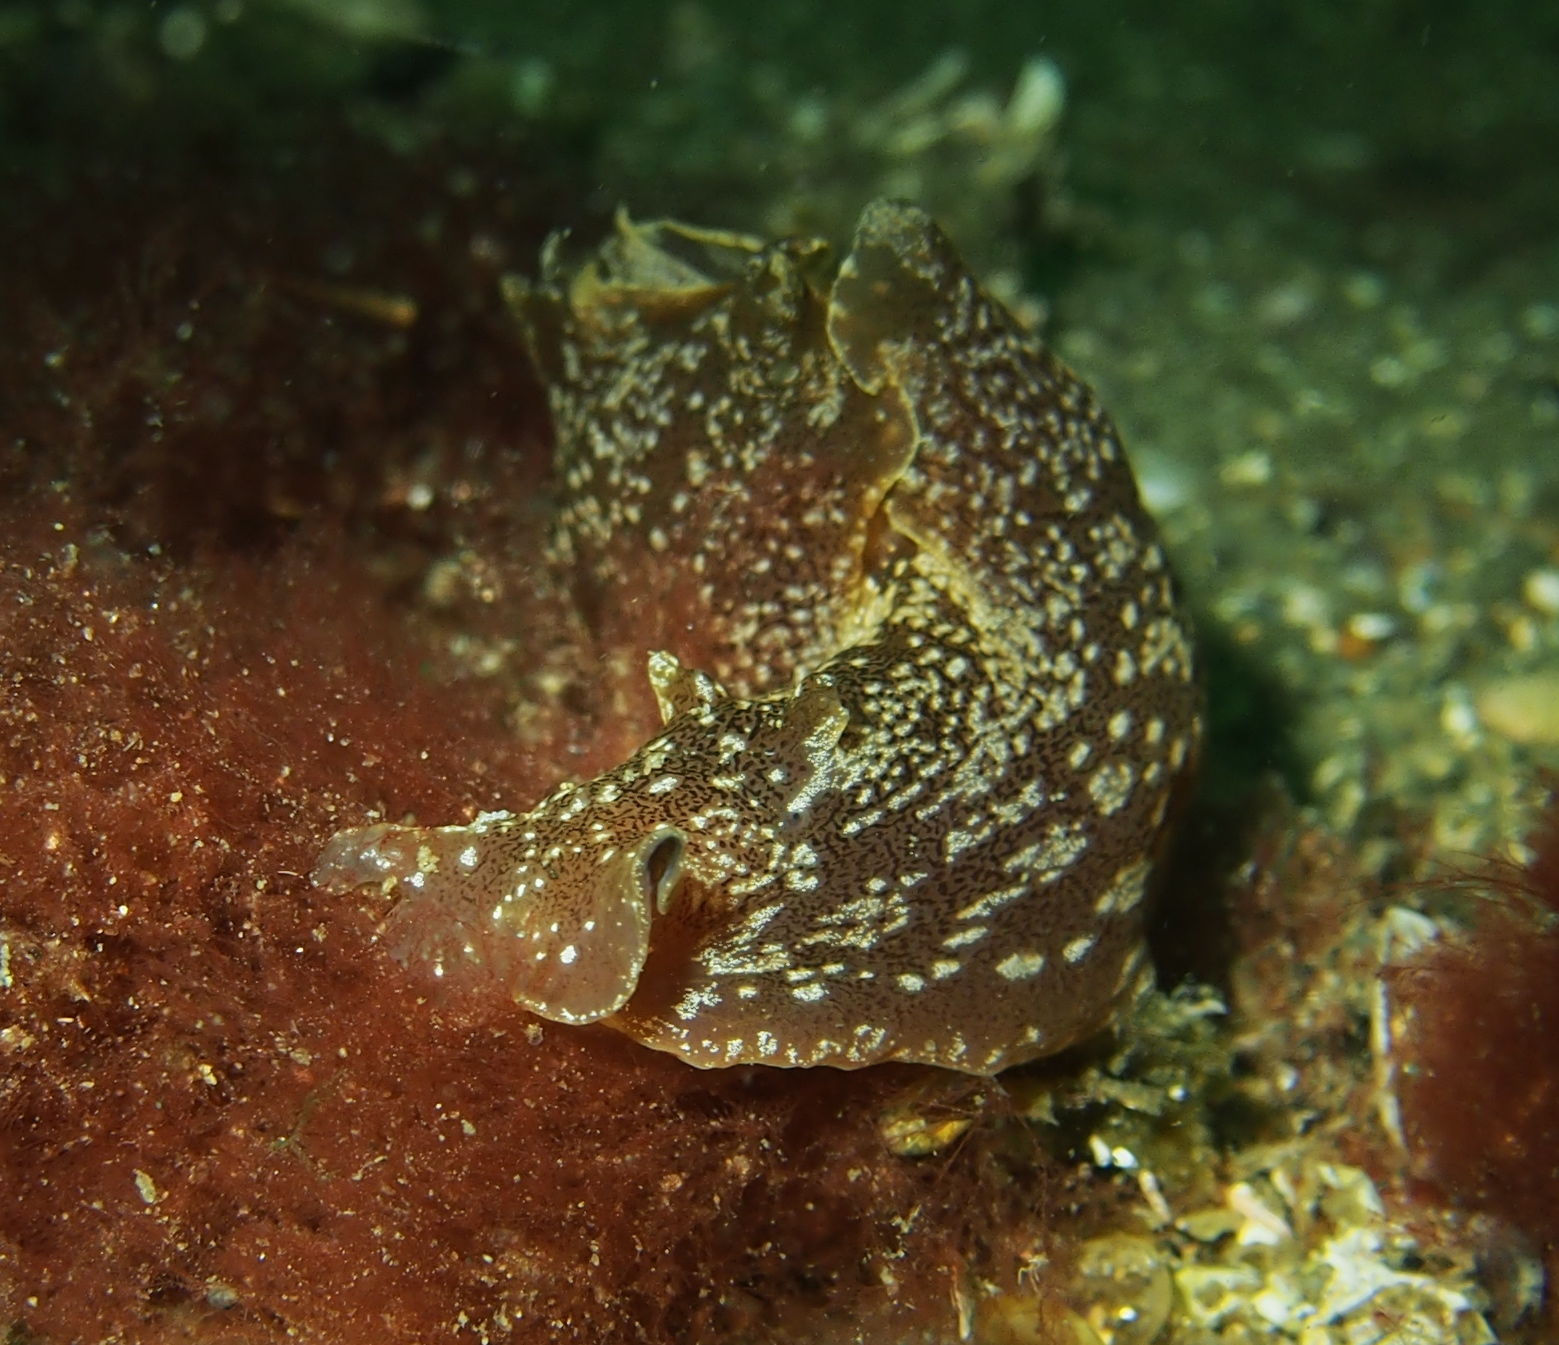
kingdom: Animalia
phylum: Mollusca
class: Gastropoda
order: Aplysiida
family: Aplysiidae
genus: Aplysia
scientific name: Aplysia punctata
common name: Common sea hare
